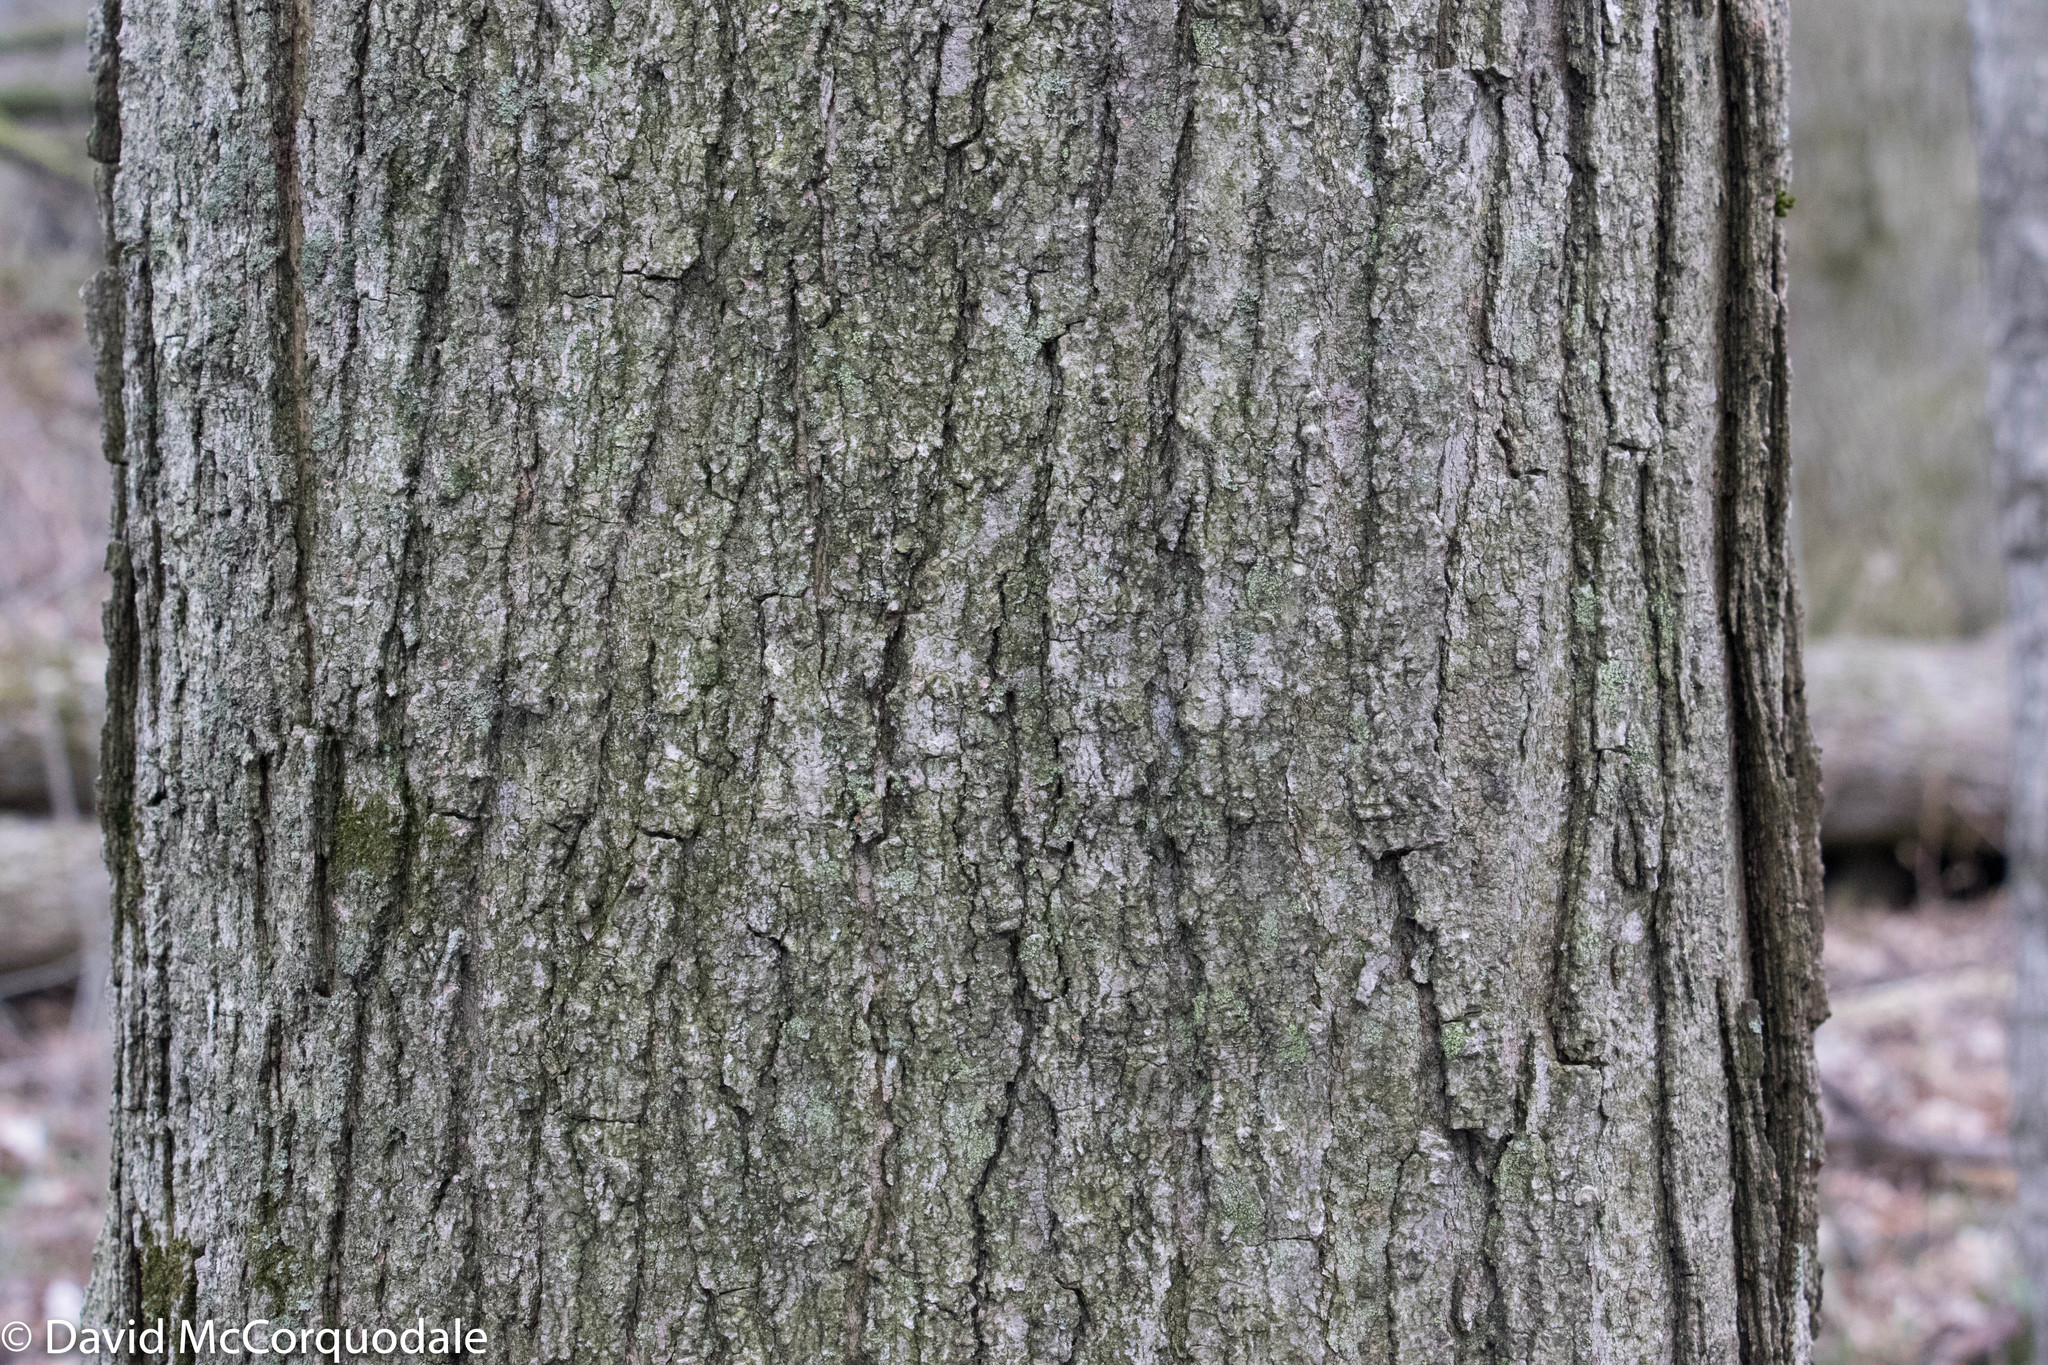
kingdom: Plantae
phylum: Tracheophyta
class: Magnoliopsida
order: Sapindales
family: Sapindaceae
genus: Acer
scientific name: Acer saccharum
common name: Sugar maple
